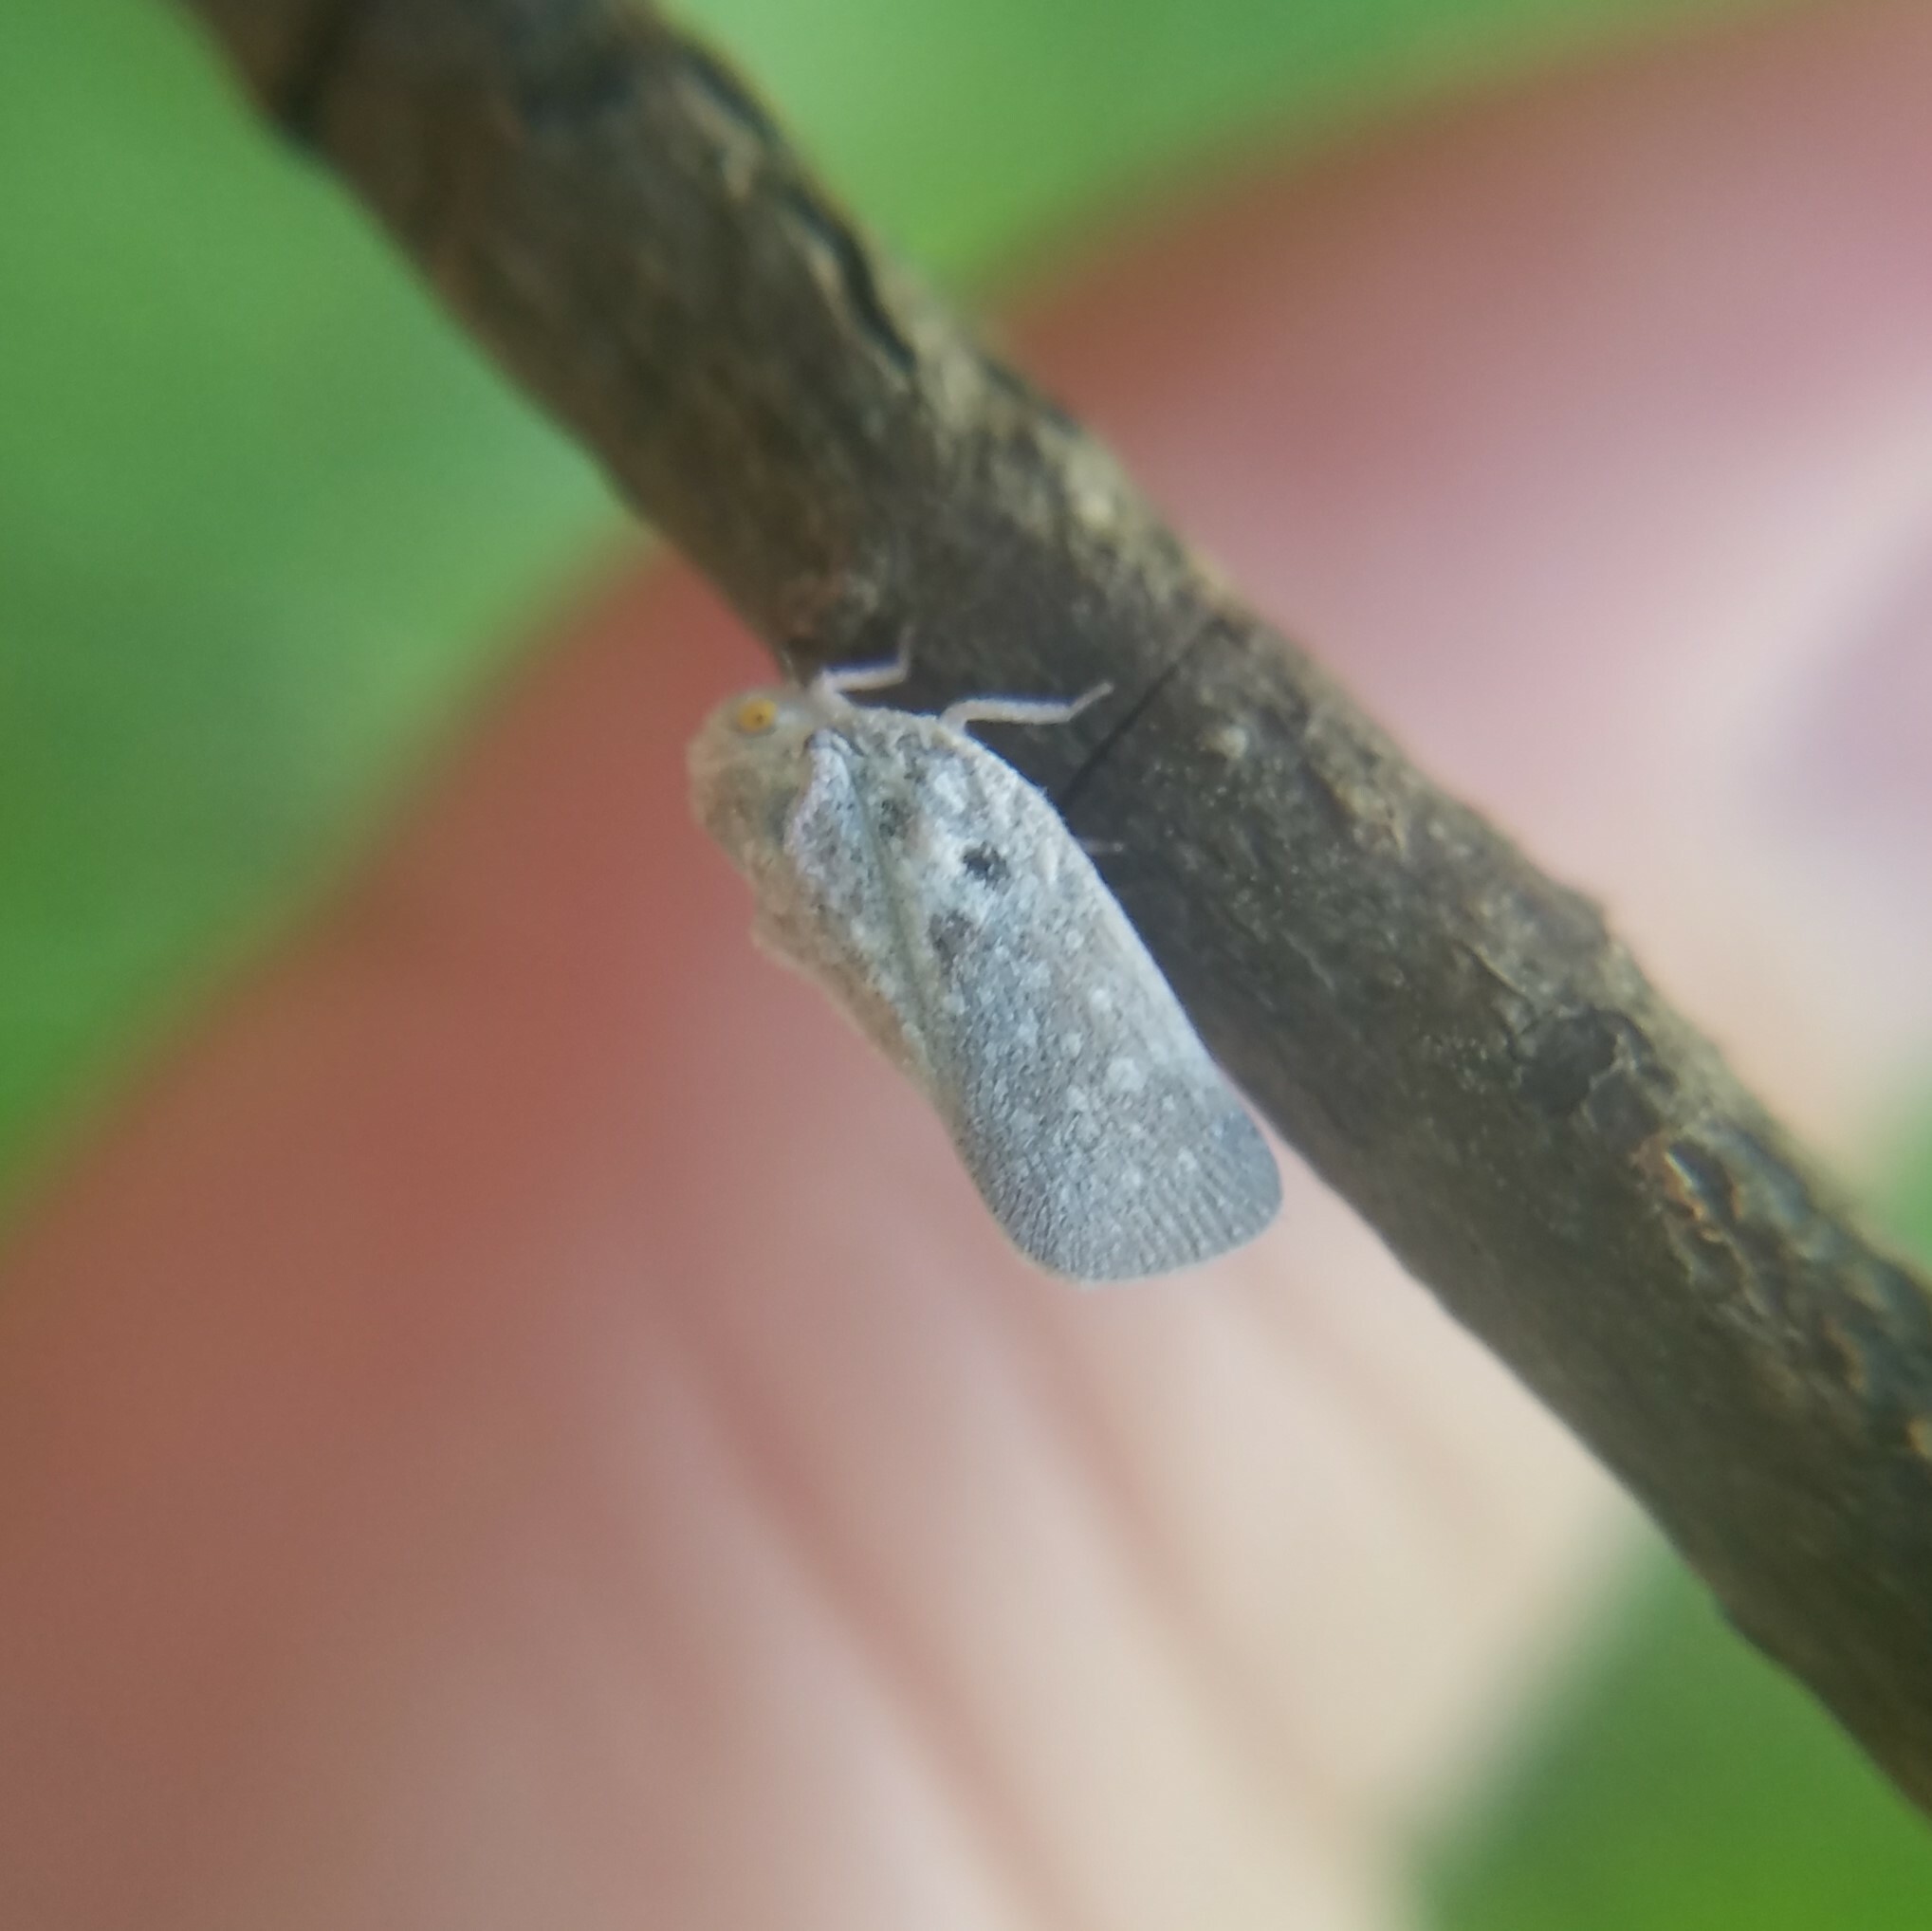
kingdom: Animalia
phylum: Arthropoda
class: Insecta
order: Hemiptera
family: Flatidae
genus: Metcalfa
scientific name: Metcalfa pruinosa
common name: Citrus flatid planthopper
